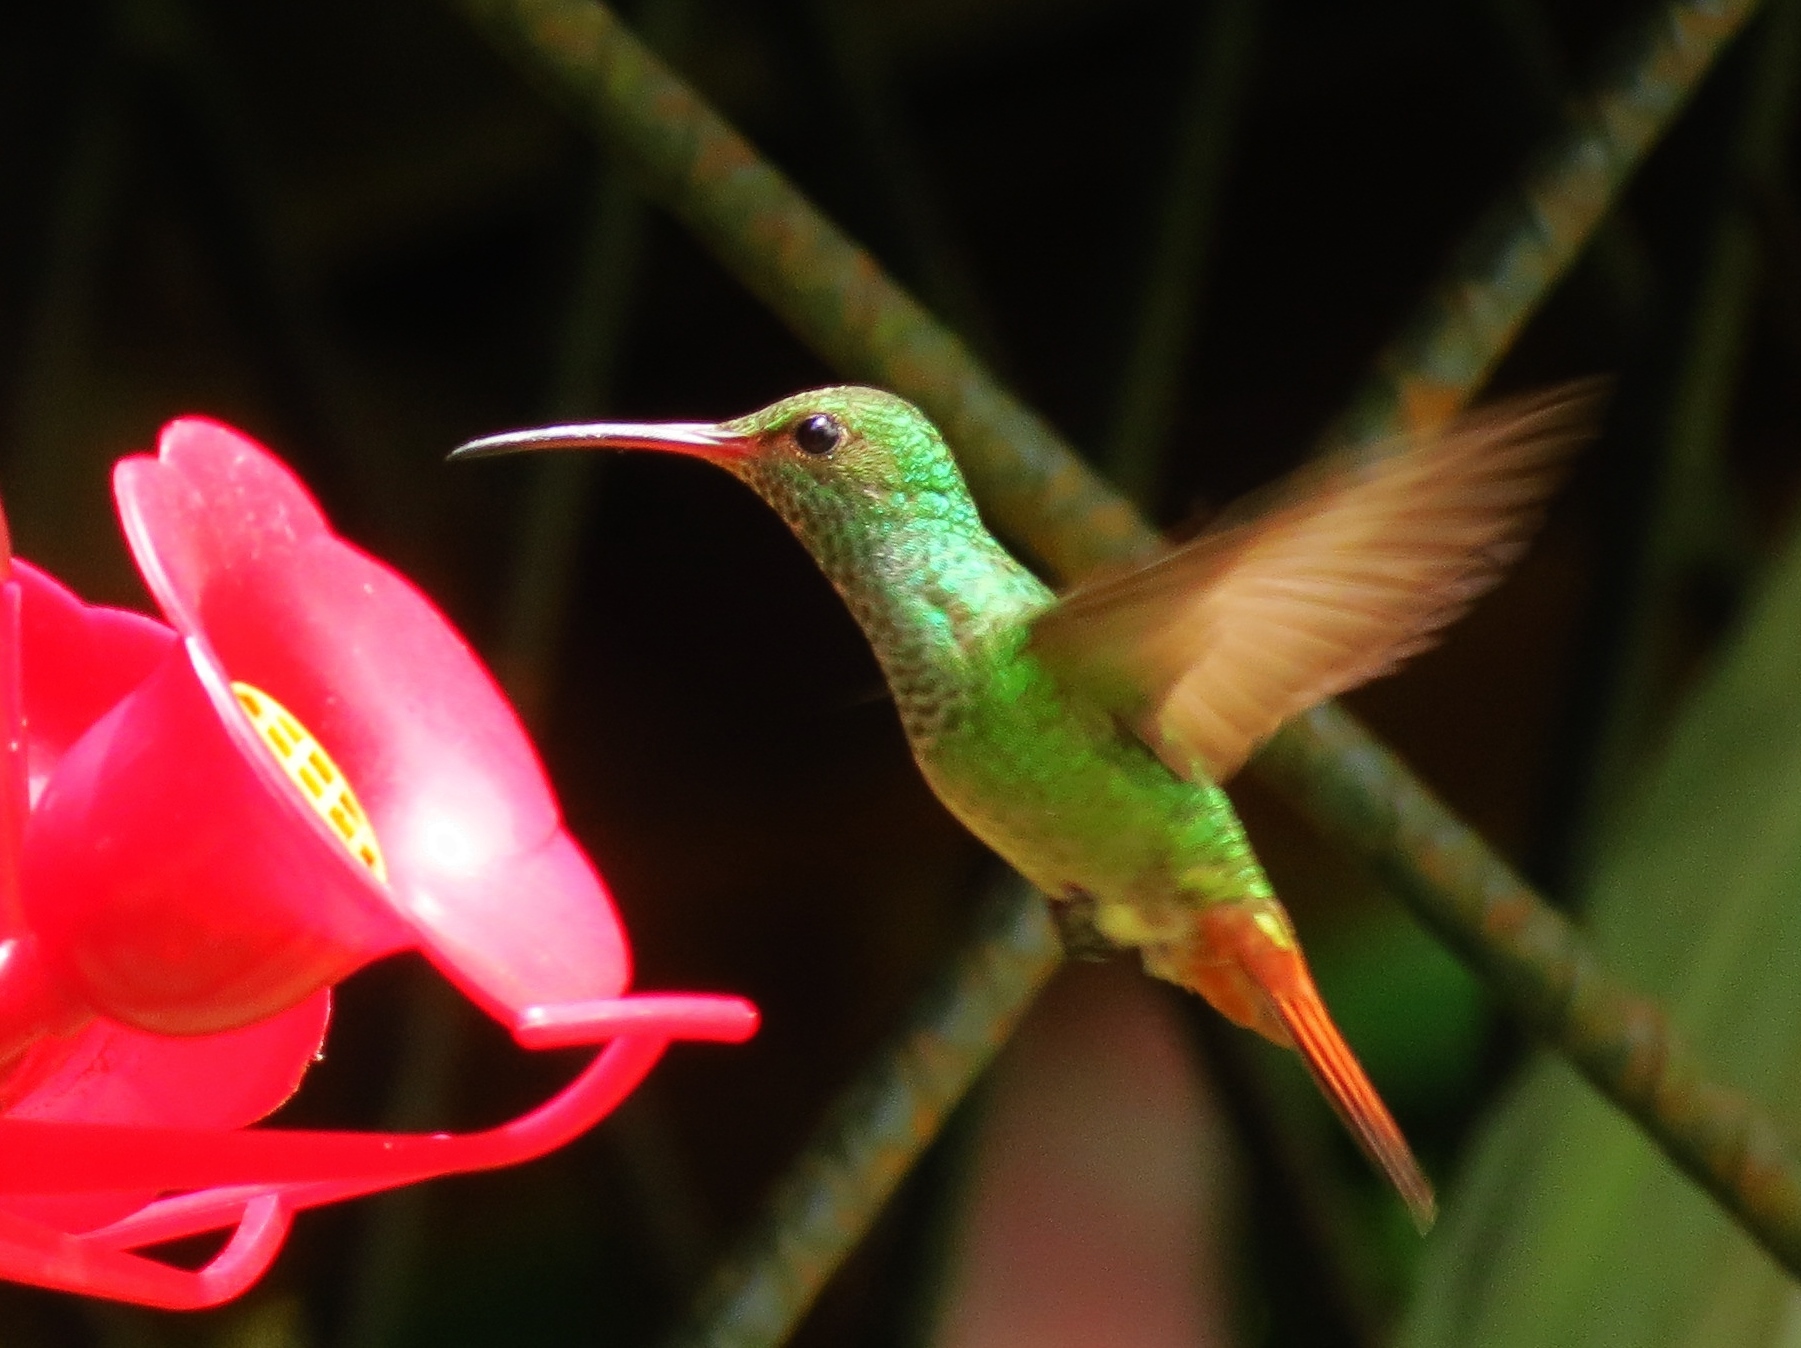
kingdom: Animalia
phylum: Chordata
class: Aves
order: Apodiformes
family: Trochilidae
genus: Amazilia
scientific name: Amazilia tzacatl
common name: Rufous-tailed hummingbird
